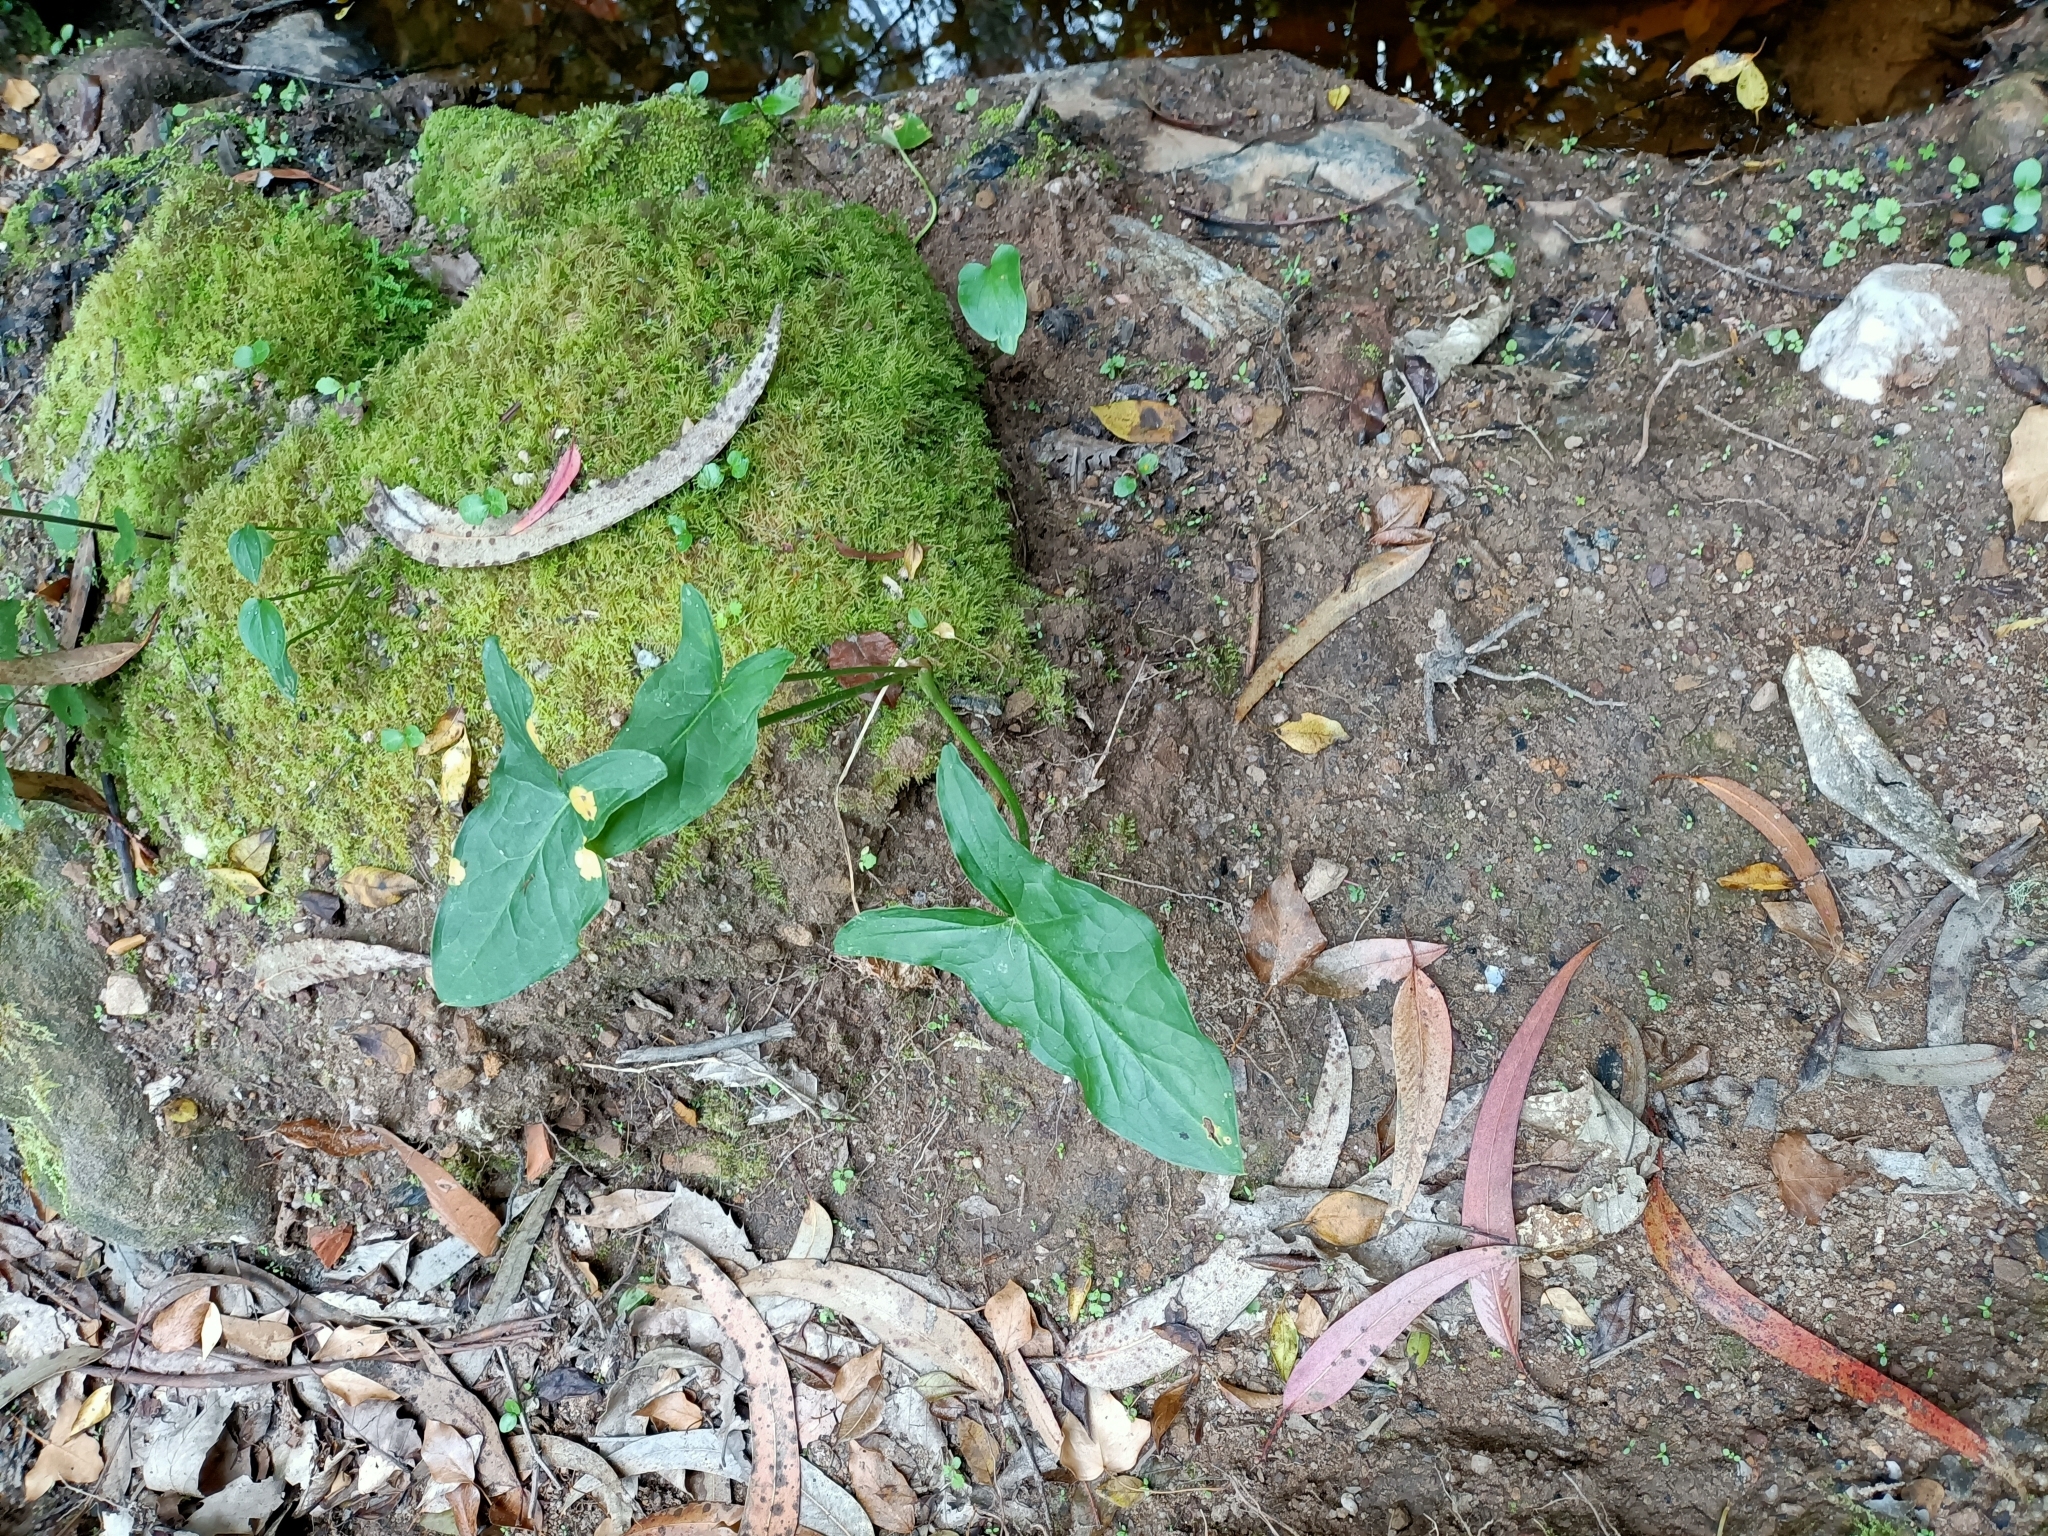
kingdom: Plantae
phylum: Tracheophyta
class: Liliopsida
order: Alismatales
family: Araceae
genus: Arum
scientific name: Arum italicum
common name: Italian lords-and-ladies
